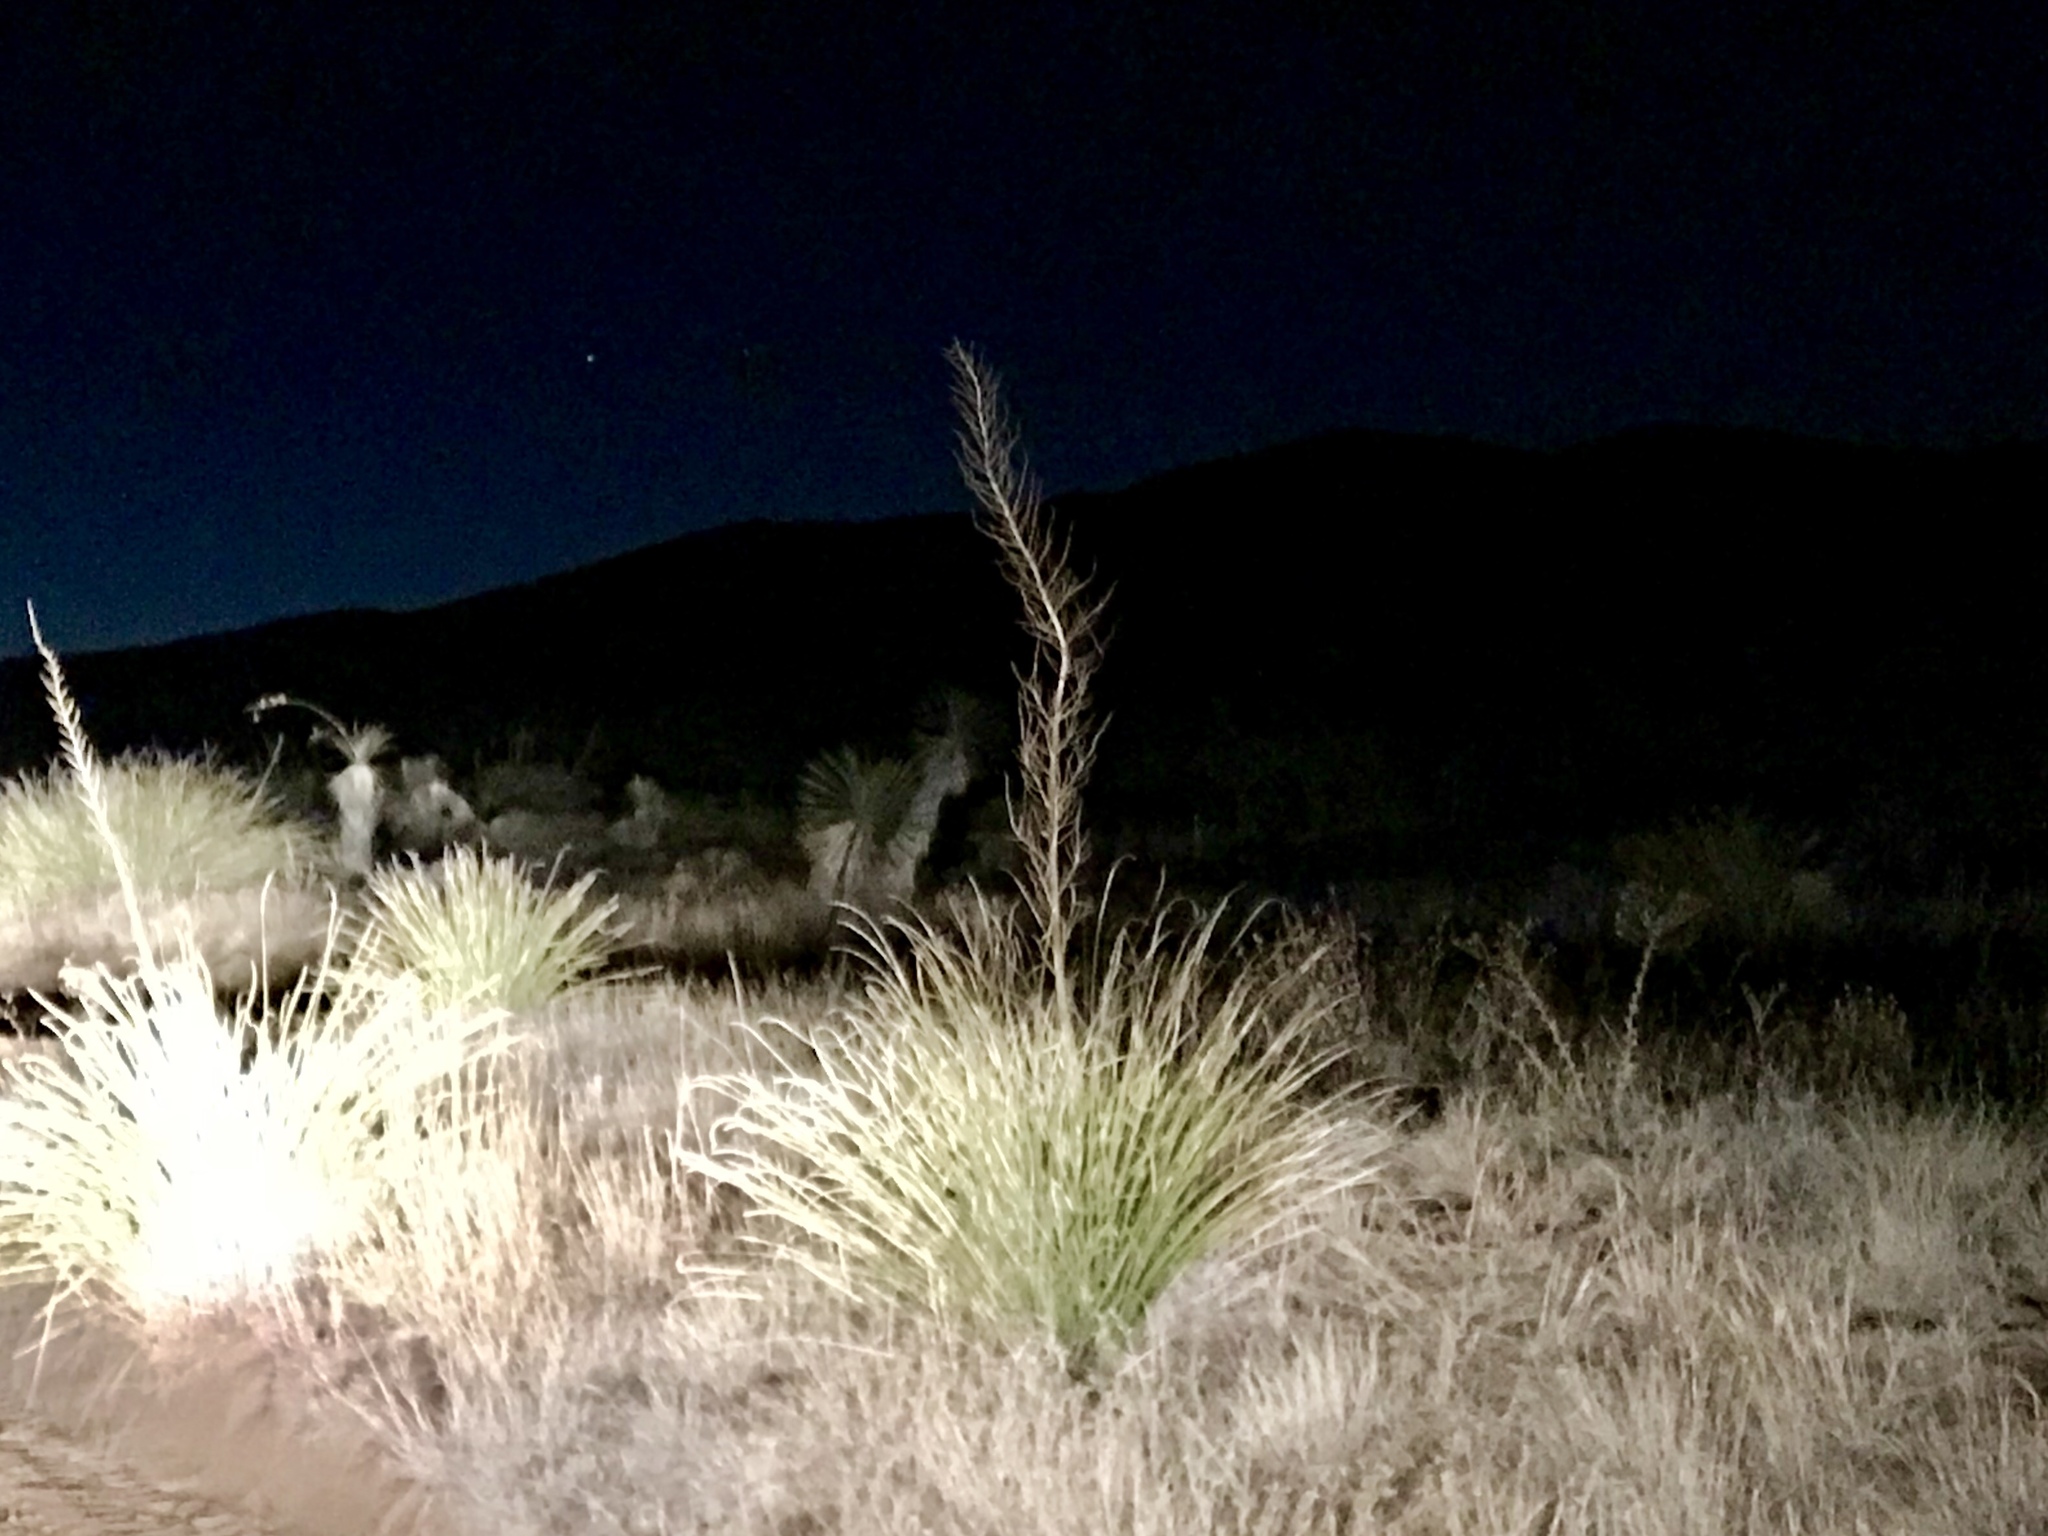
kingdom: Plantae
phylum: Tracheophyta
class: Liliopsida
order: Asparagales
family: Asparagaceae
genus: Nolina
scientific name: Nolina microcarpa
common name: Bear-grass
